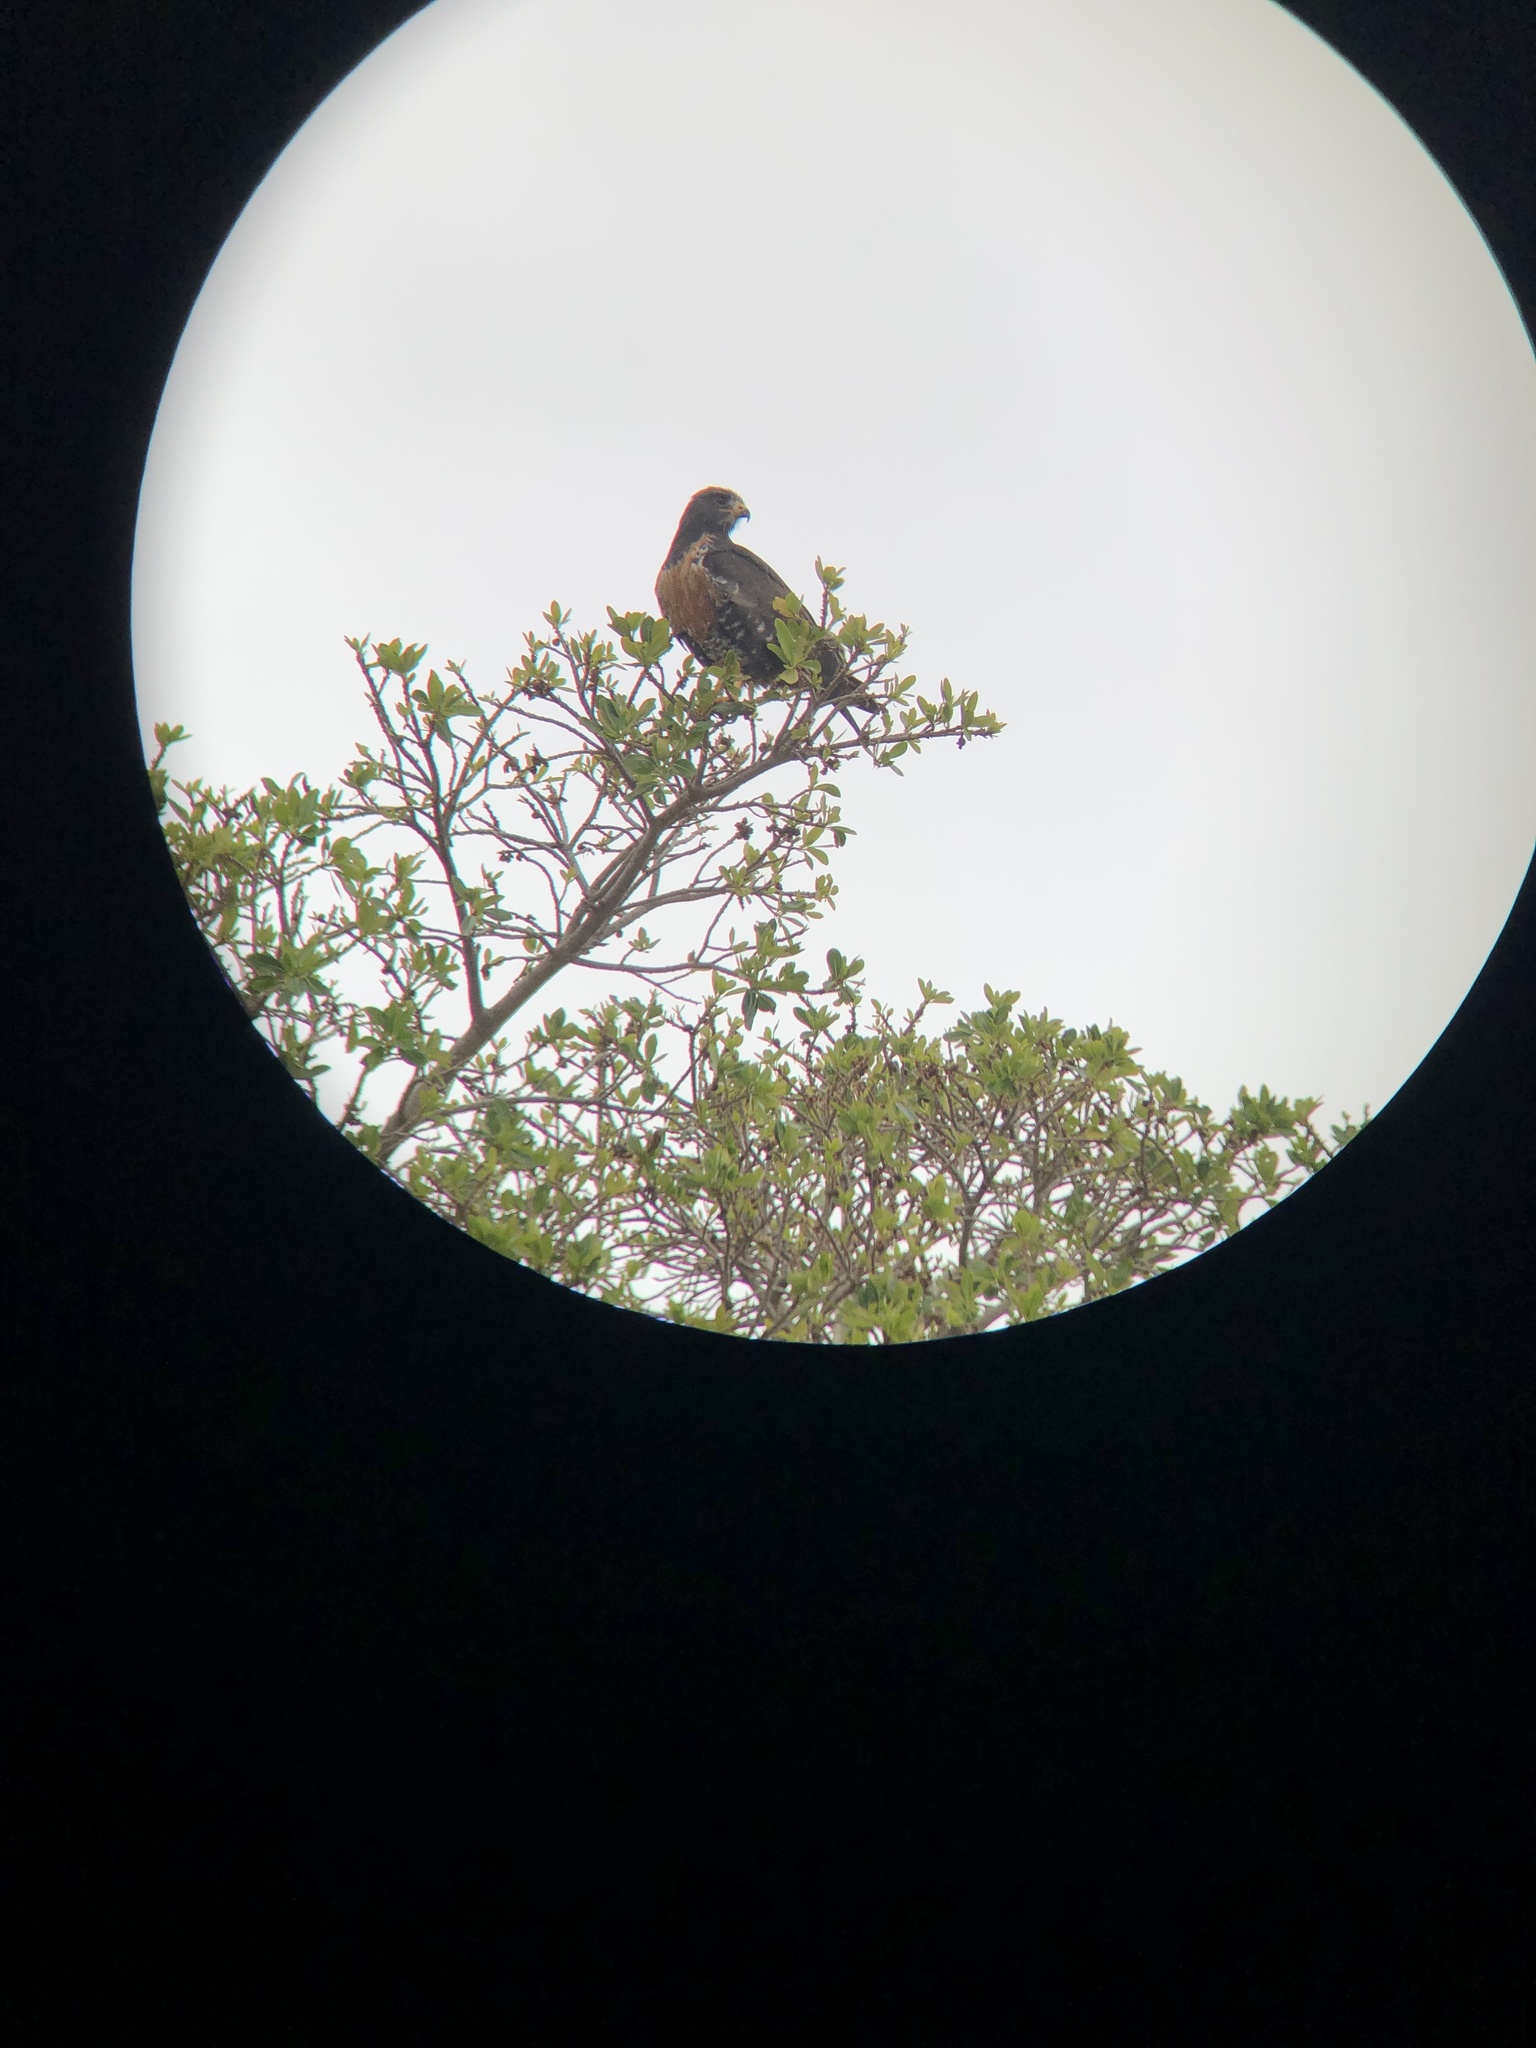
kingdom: Animalia
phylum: Chordata
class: Aves
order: Accipitriformes
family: Accipitridae
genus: Buteo
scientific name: Buteo rufofuscus
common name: Jackal buzzard
